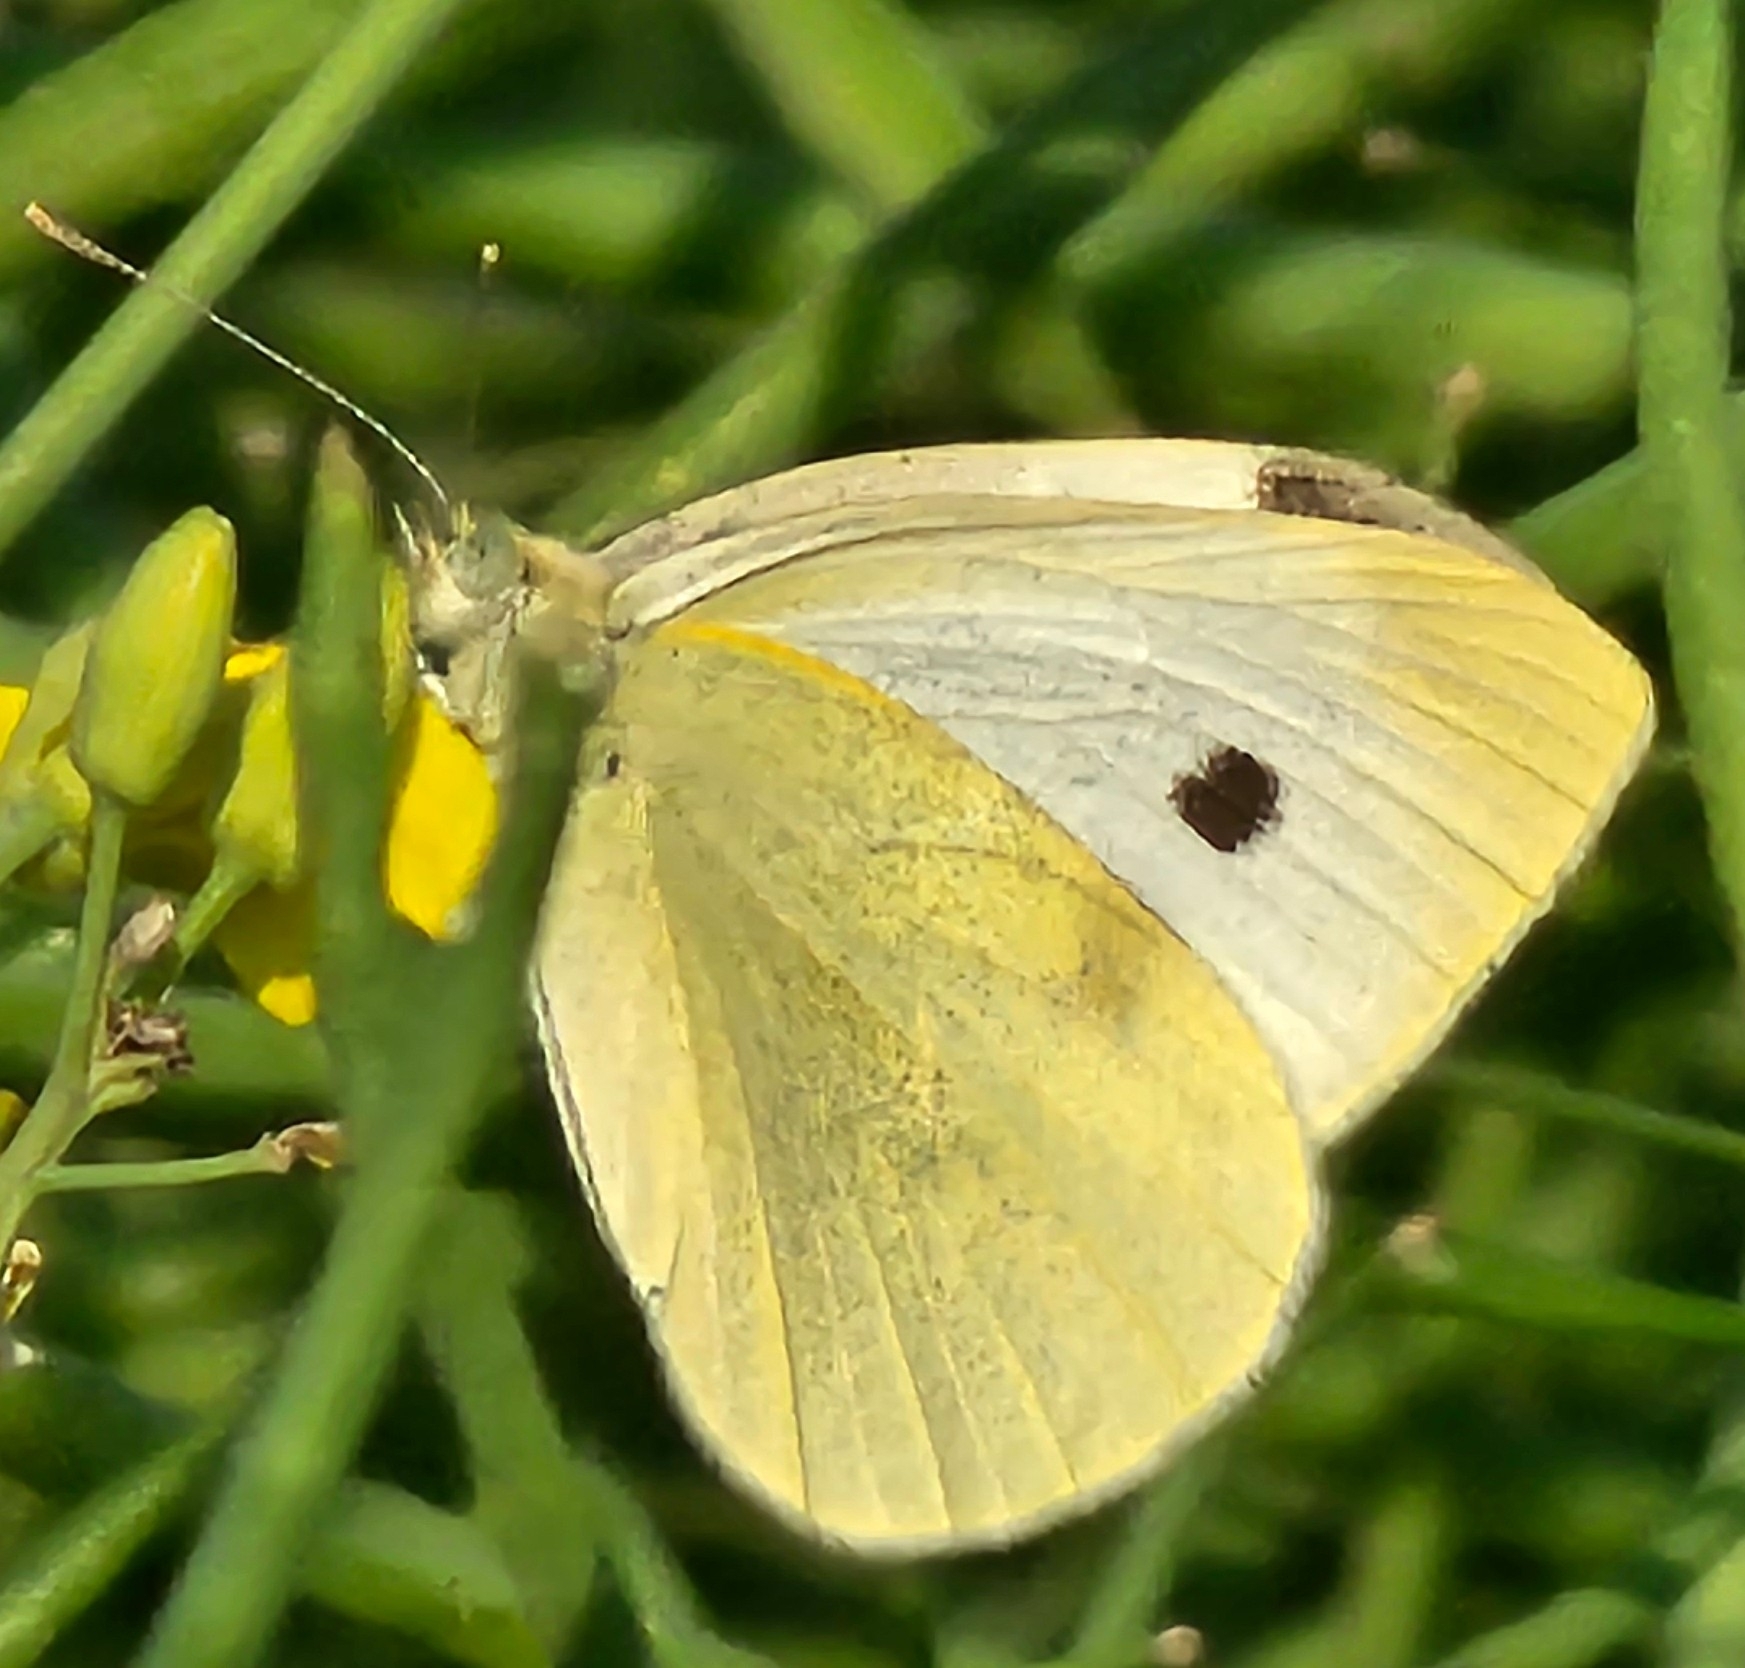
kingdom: Animalia
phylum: Arthropoda
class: Insecta
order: Lepidoptera
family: Pieridae
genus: Pieris
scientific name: Pieris rapae
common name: Small white
